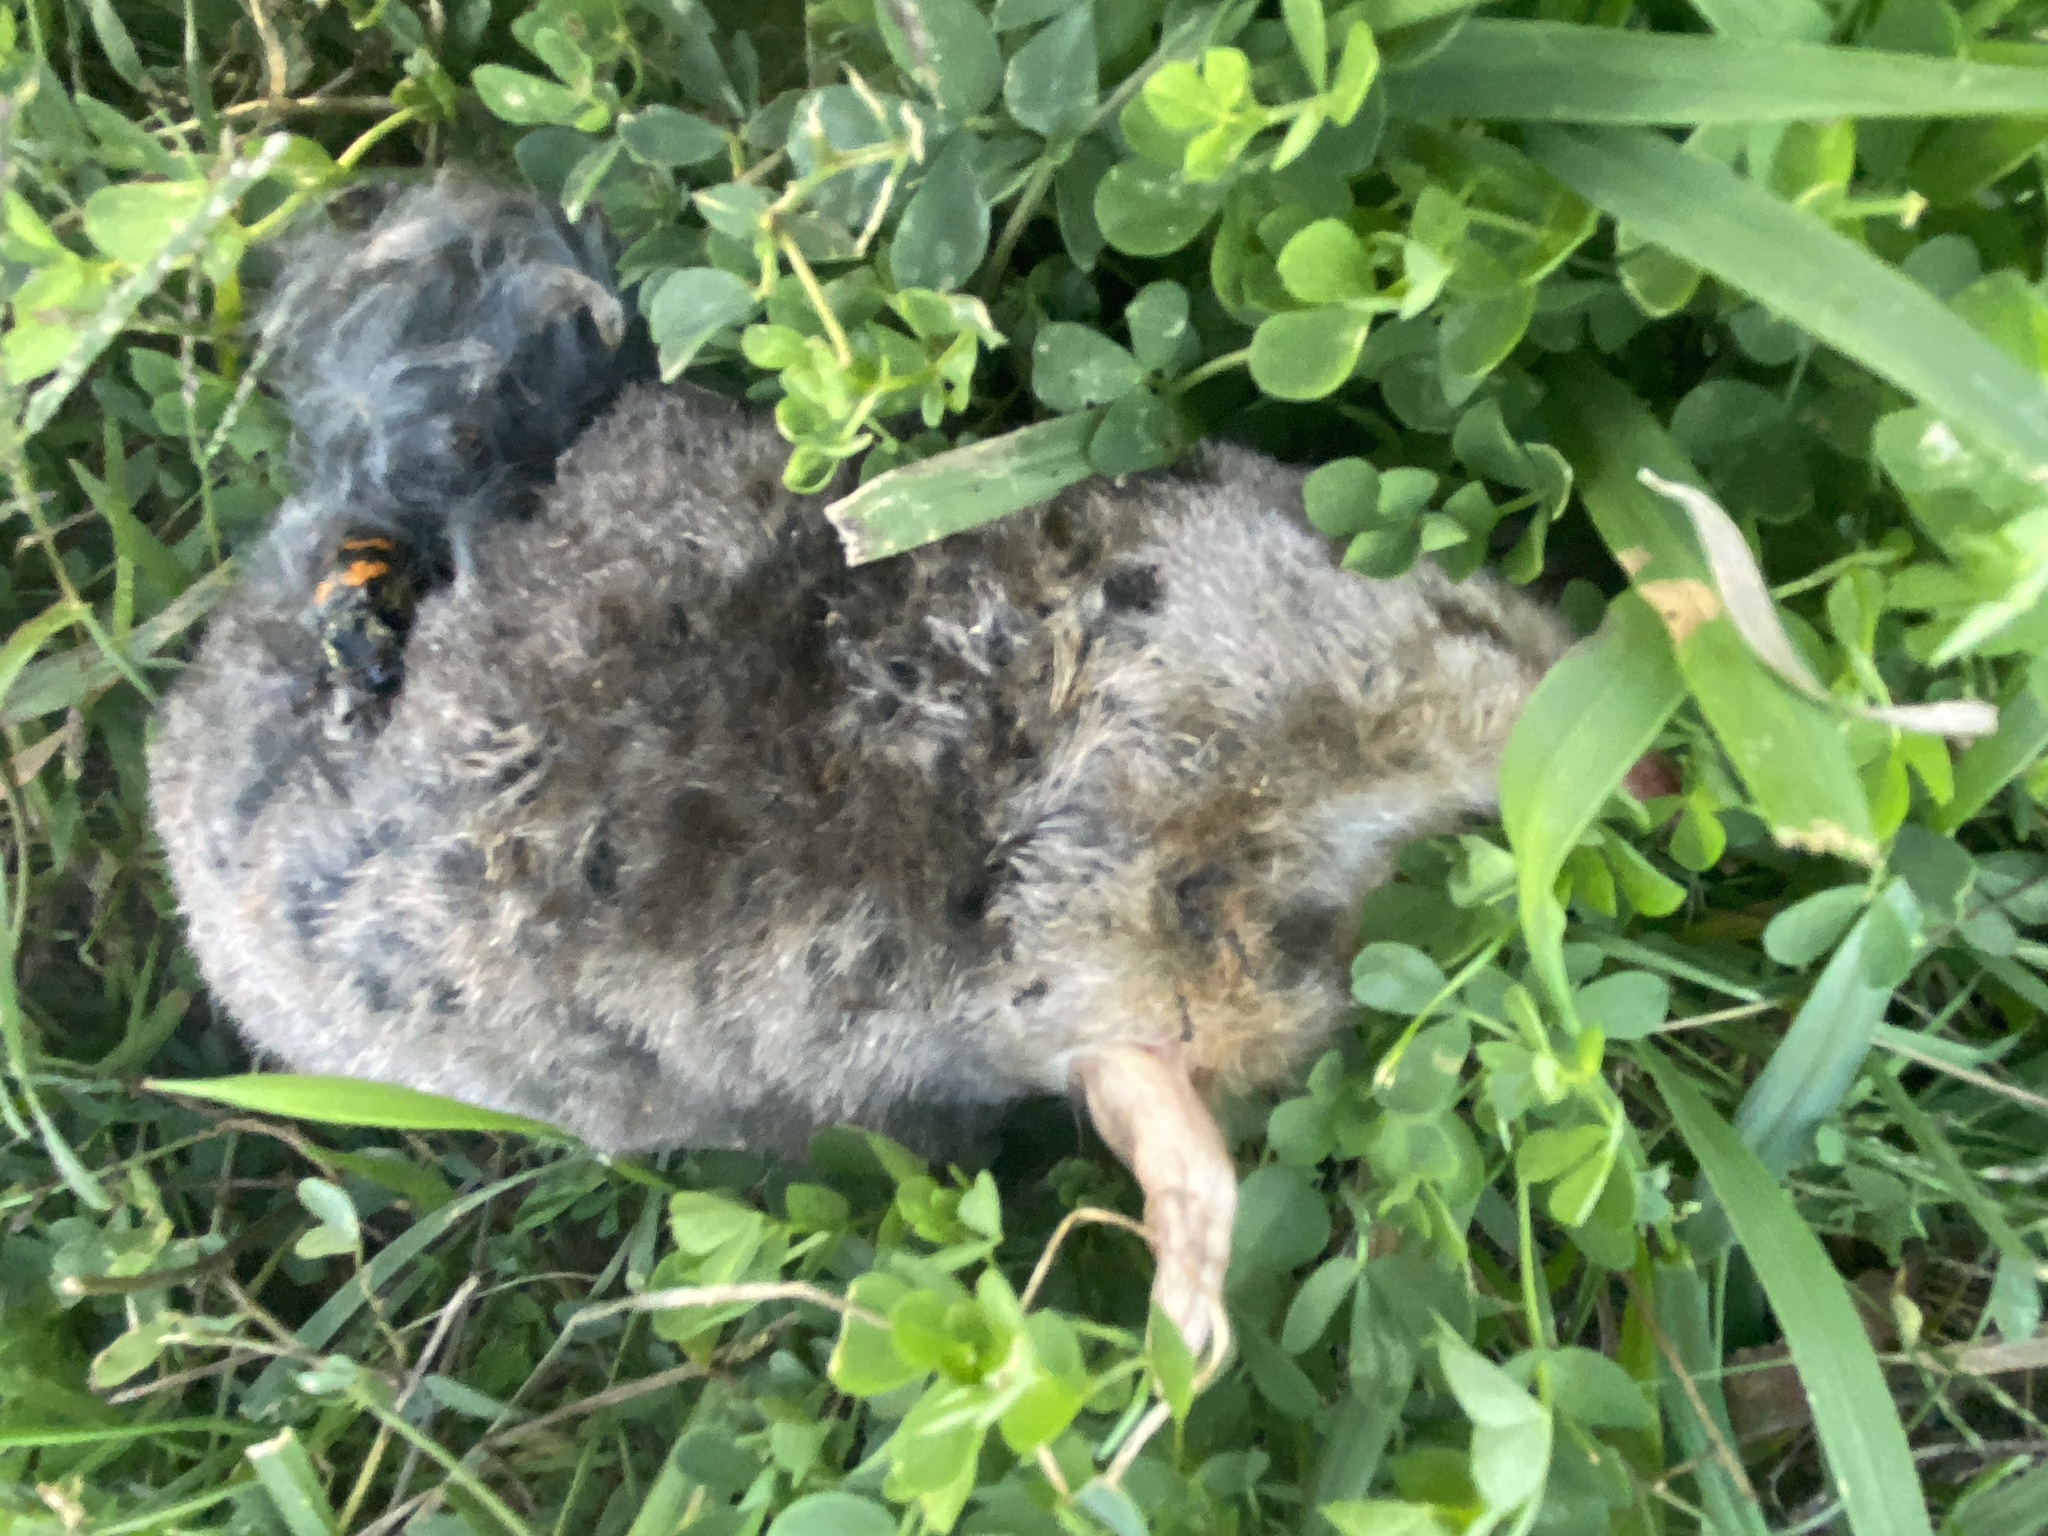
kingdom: Animalia
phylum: Chordata
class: Mammalia
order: Soricomorpha
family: Talpidae
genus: Scalopus
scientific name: Scalopus aquaticus
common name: Eastern mole
